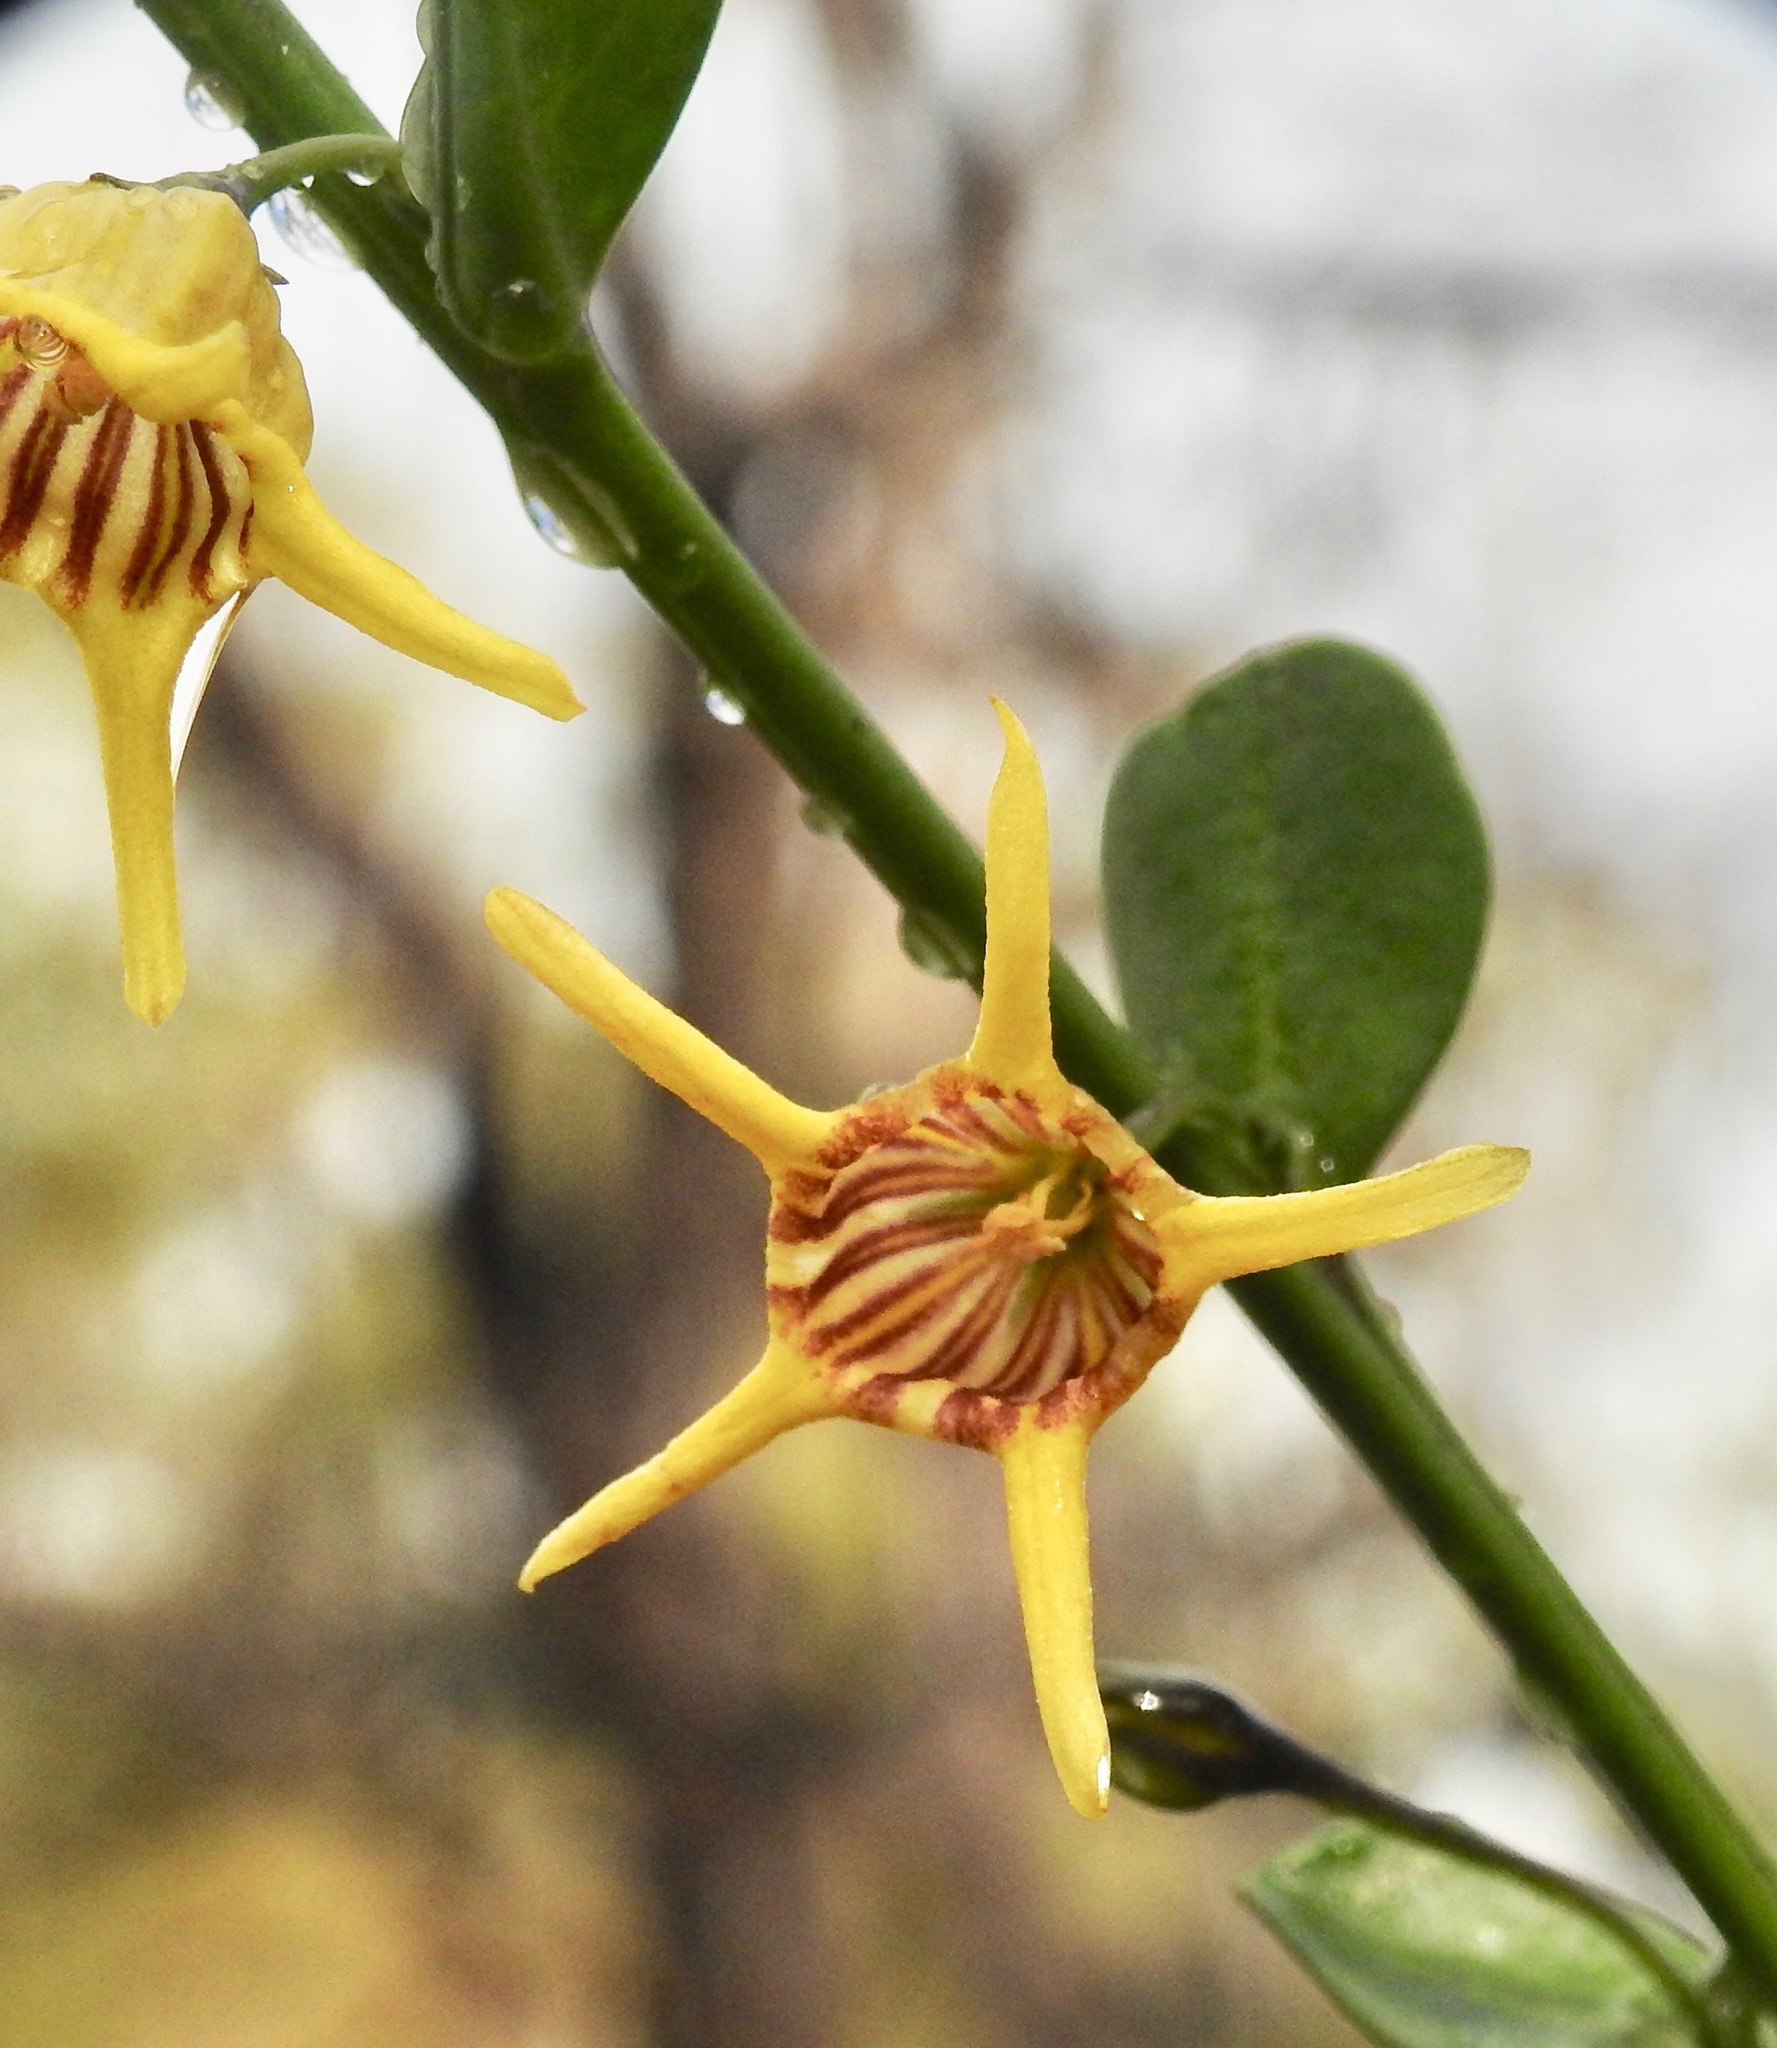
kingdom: Plantae
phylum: Tracheophyta
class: Magnoliopsida
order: Solanales
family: Solanaceae
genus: Anthocercis
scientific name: Anthocercis ilicifolia
